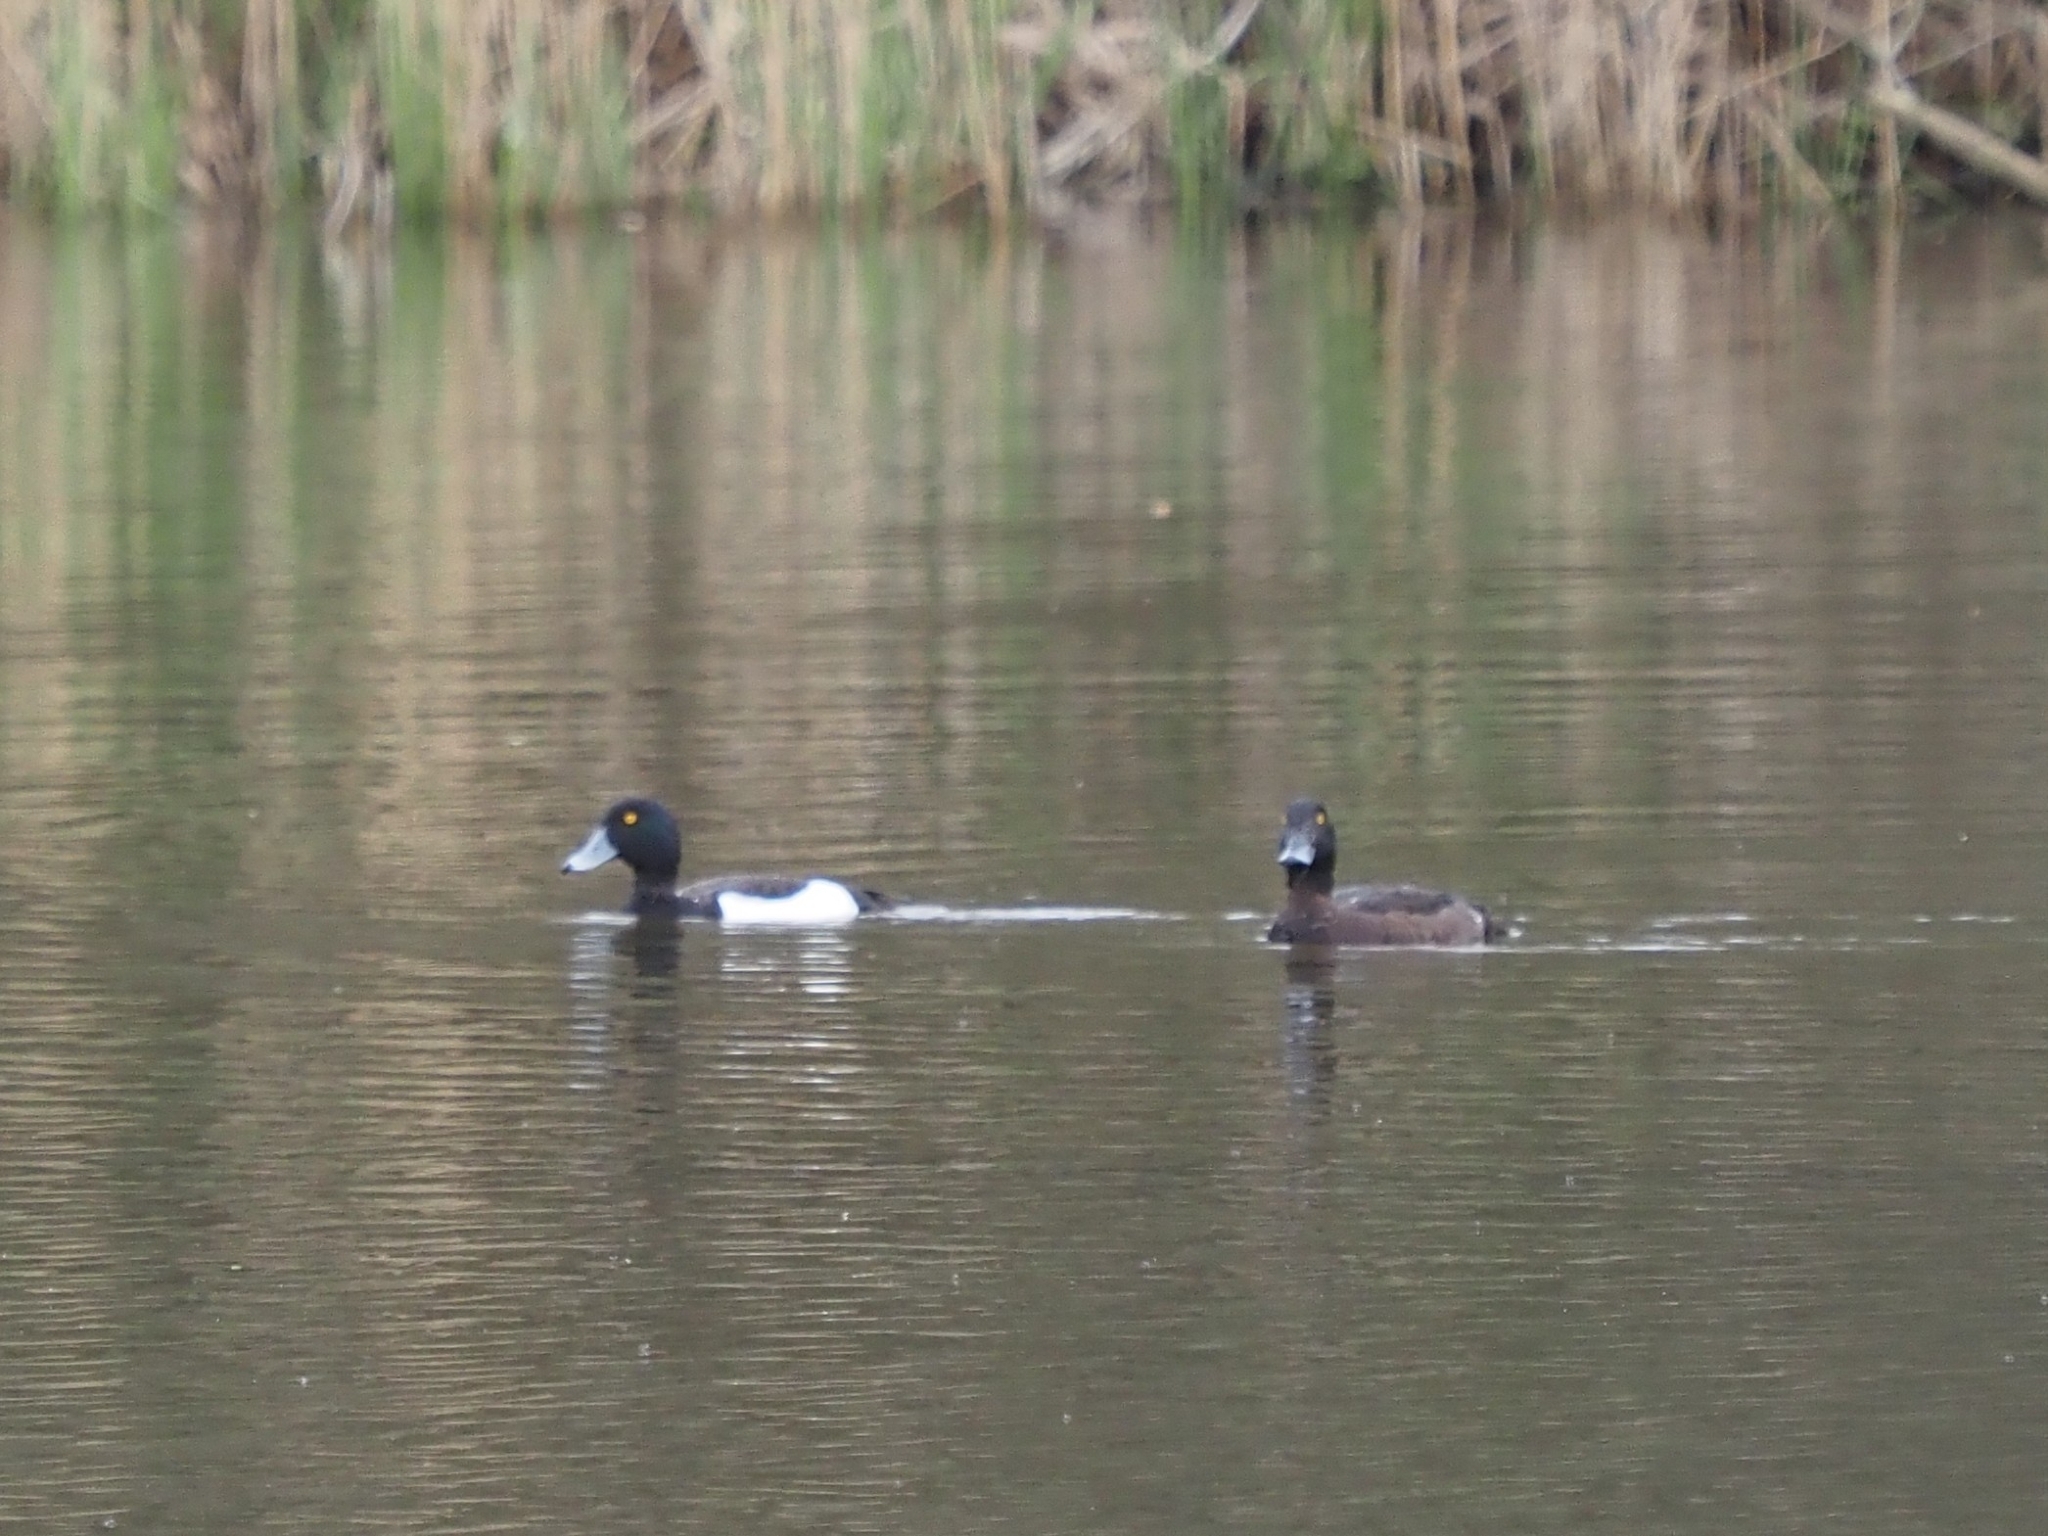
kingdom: Animalia
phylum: Chordata
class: Aves
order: Anseriformes
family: Anatidae
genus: Aythya
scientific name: Aythya fuligula
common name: Tufted duck
